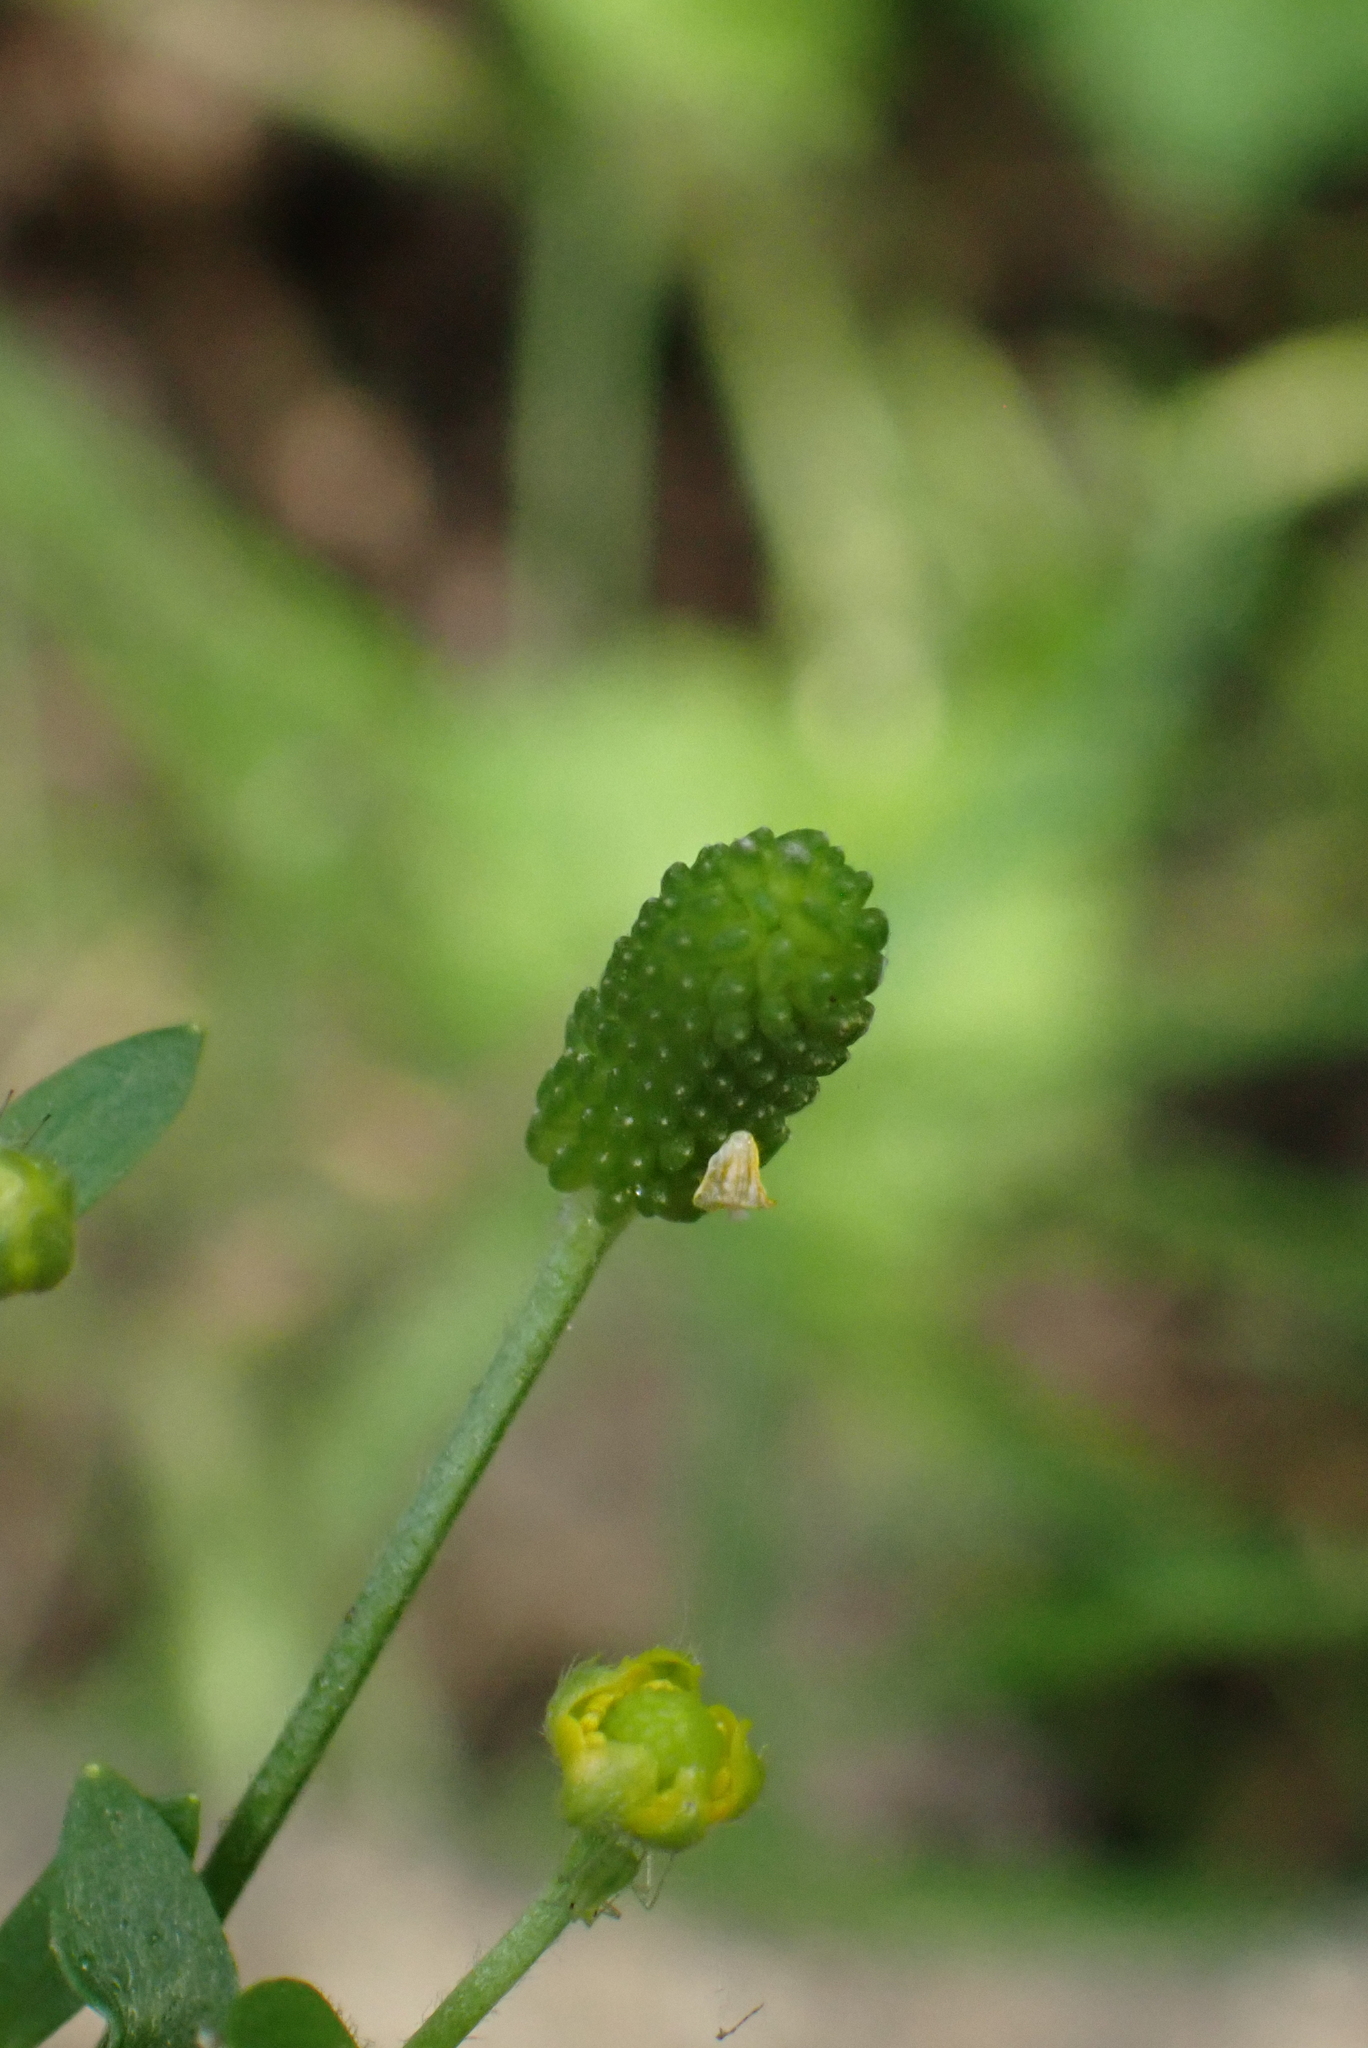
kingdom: Plantae
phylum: Tracheophyta
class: Magnoliopsida
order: Ranunculales
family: Ranunculaceae
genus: Ranunculus
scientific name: Ranunculus sceleratus
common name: Celery-leaved buttercup
